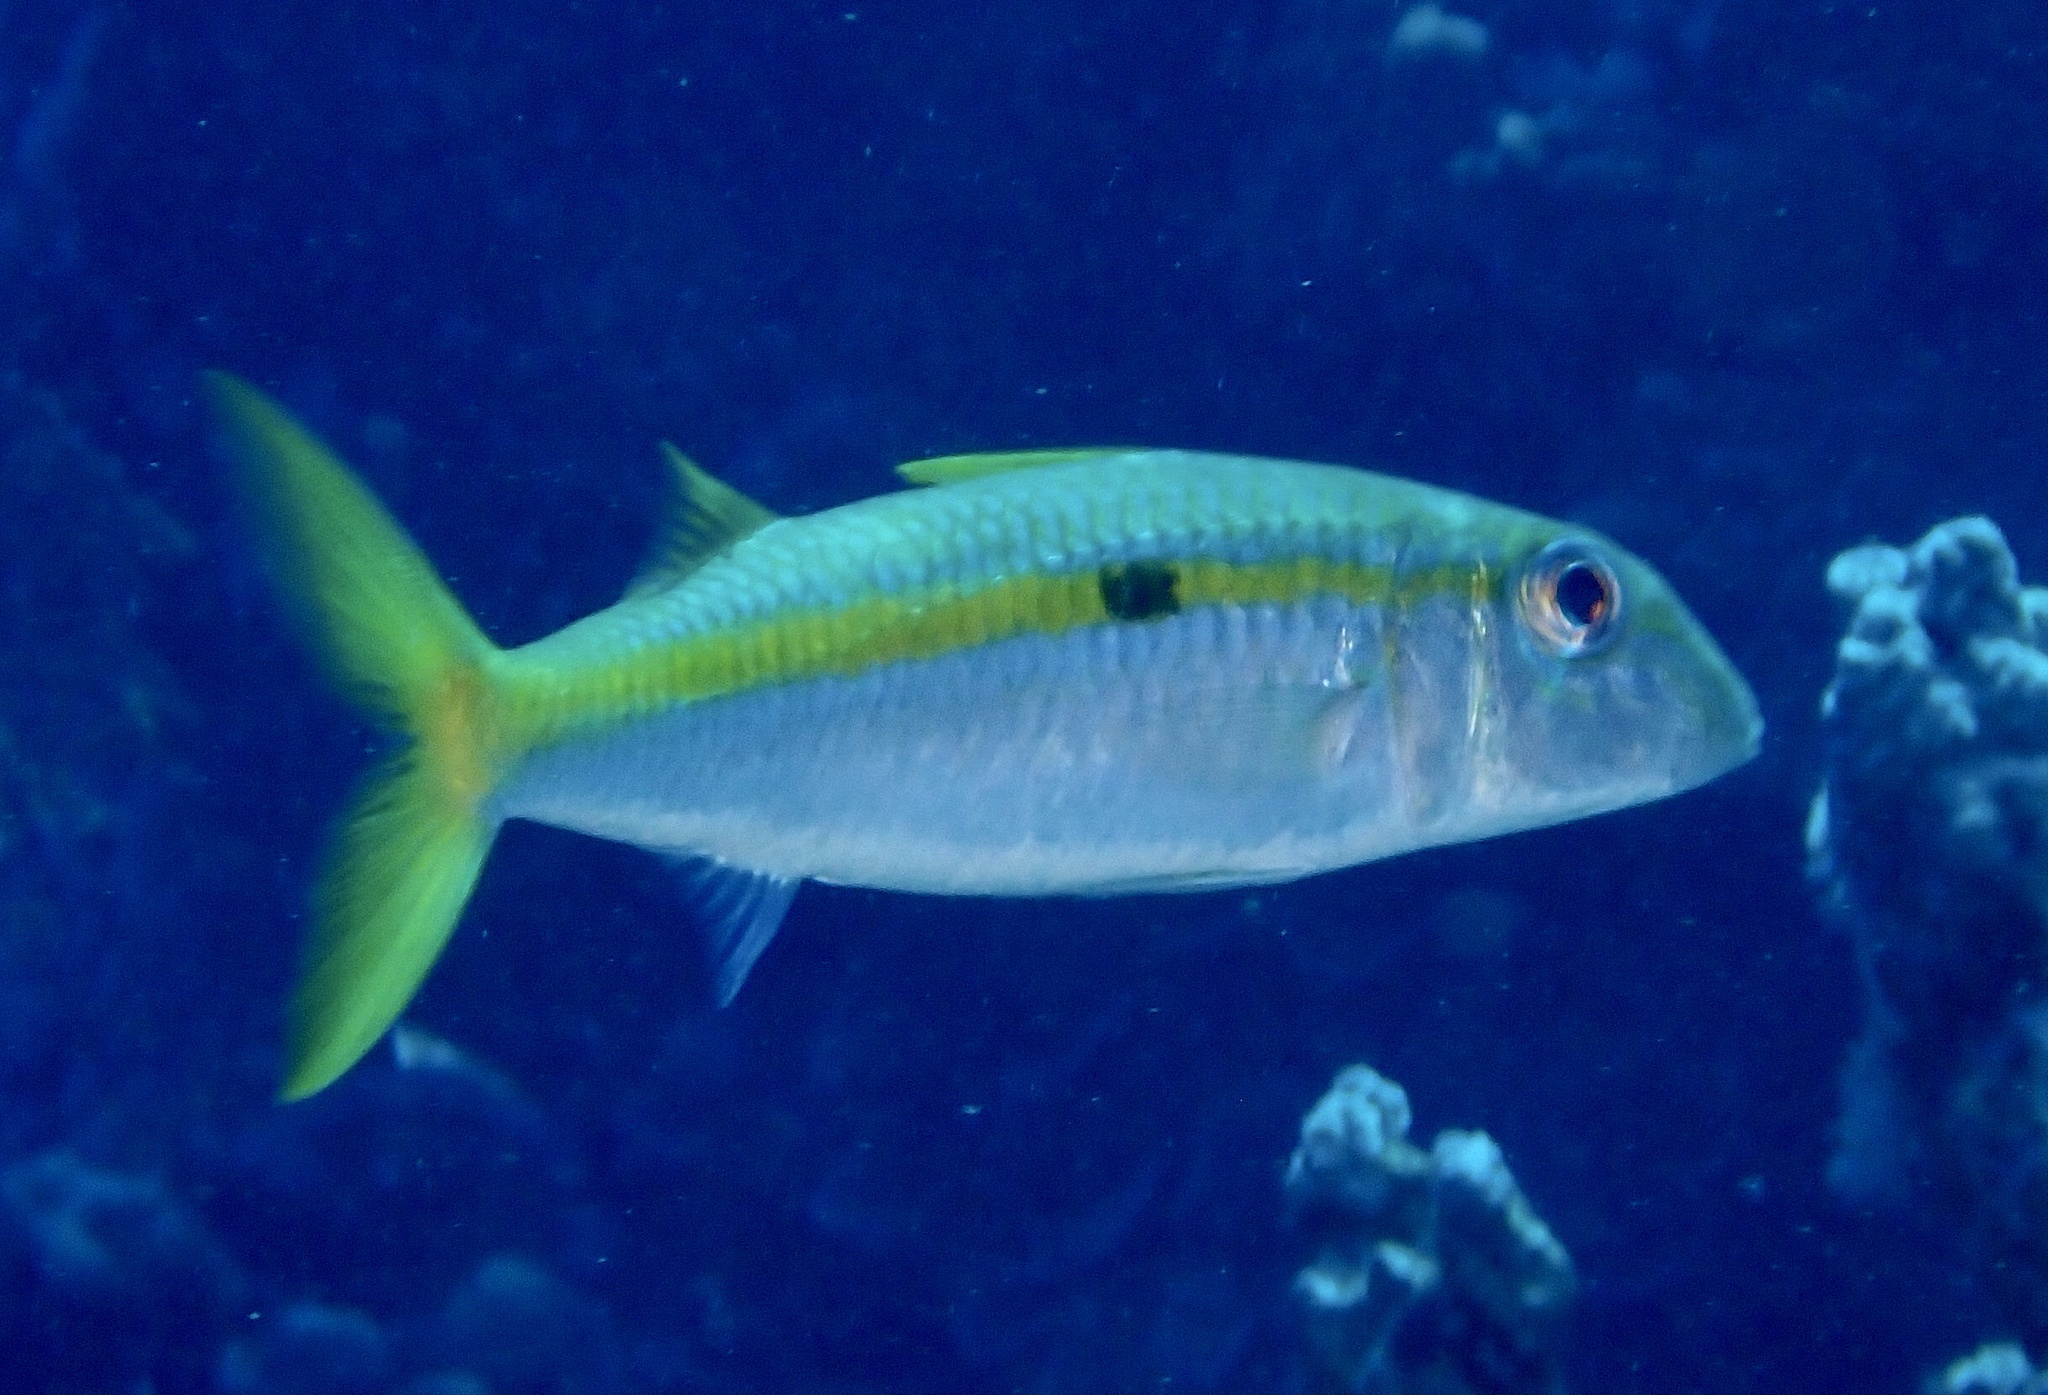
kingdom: Animalia
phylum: Chordata
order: Perciformes
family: Mullidae
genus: Mulloidichthys
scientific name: Mulloidichthys flavolineatus
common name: Yellowstripe goatfish
